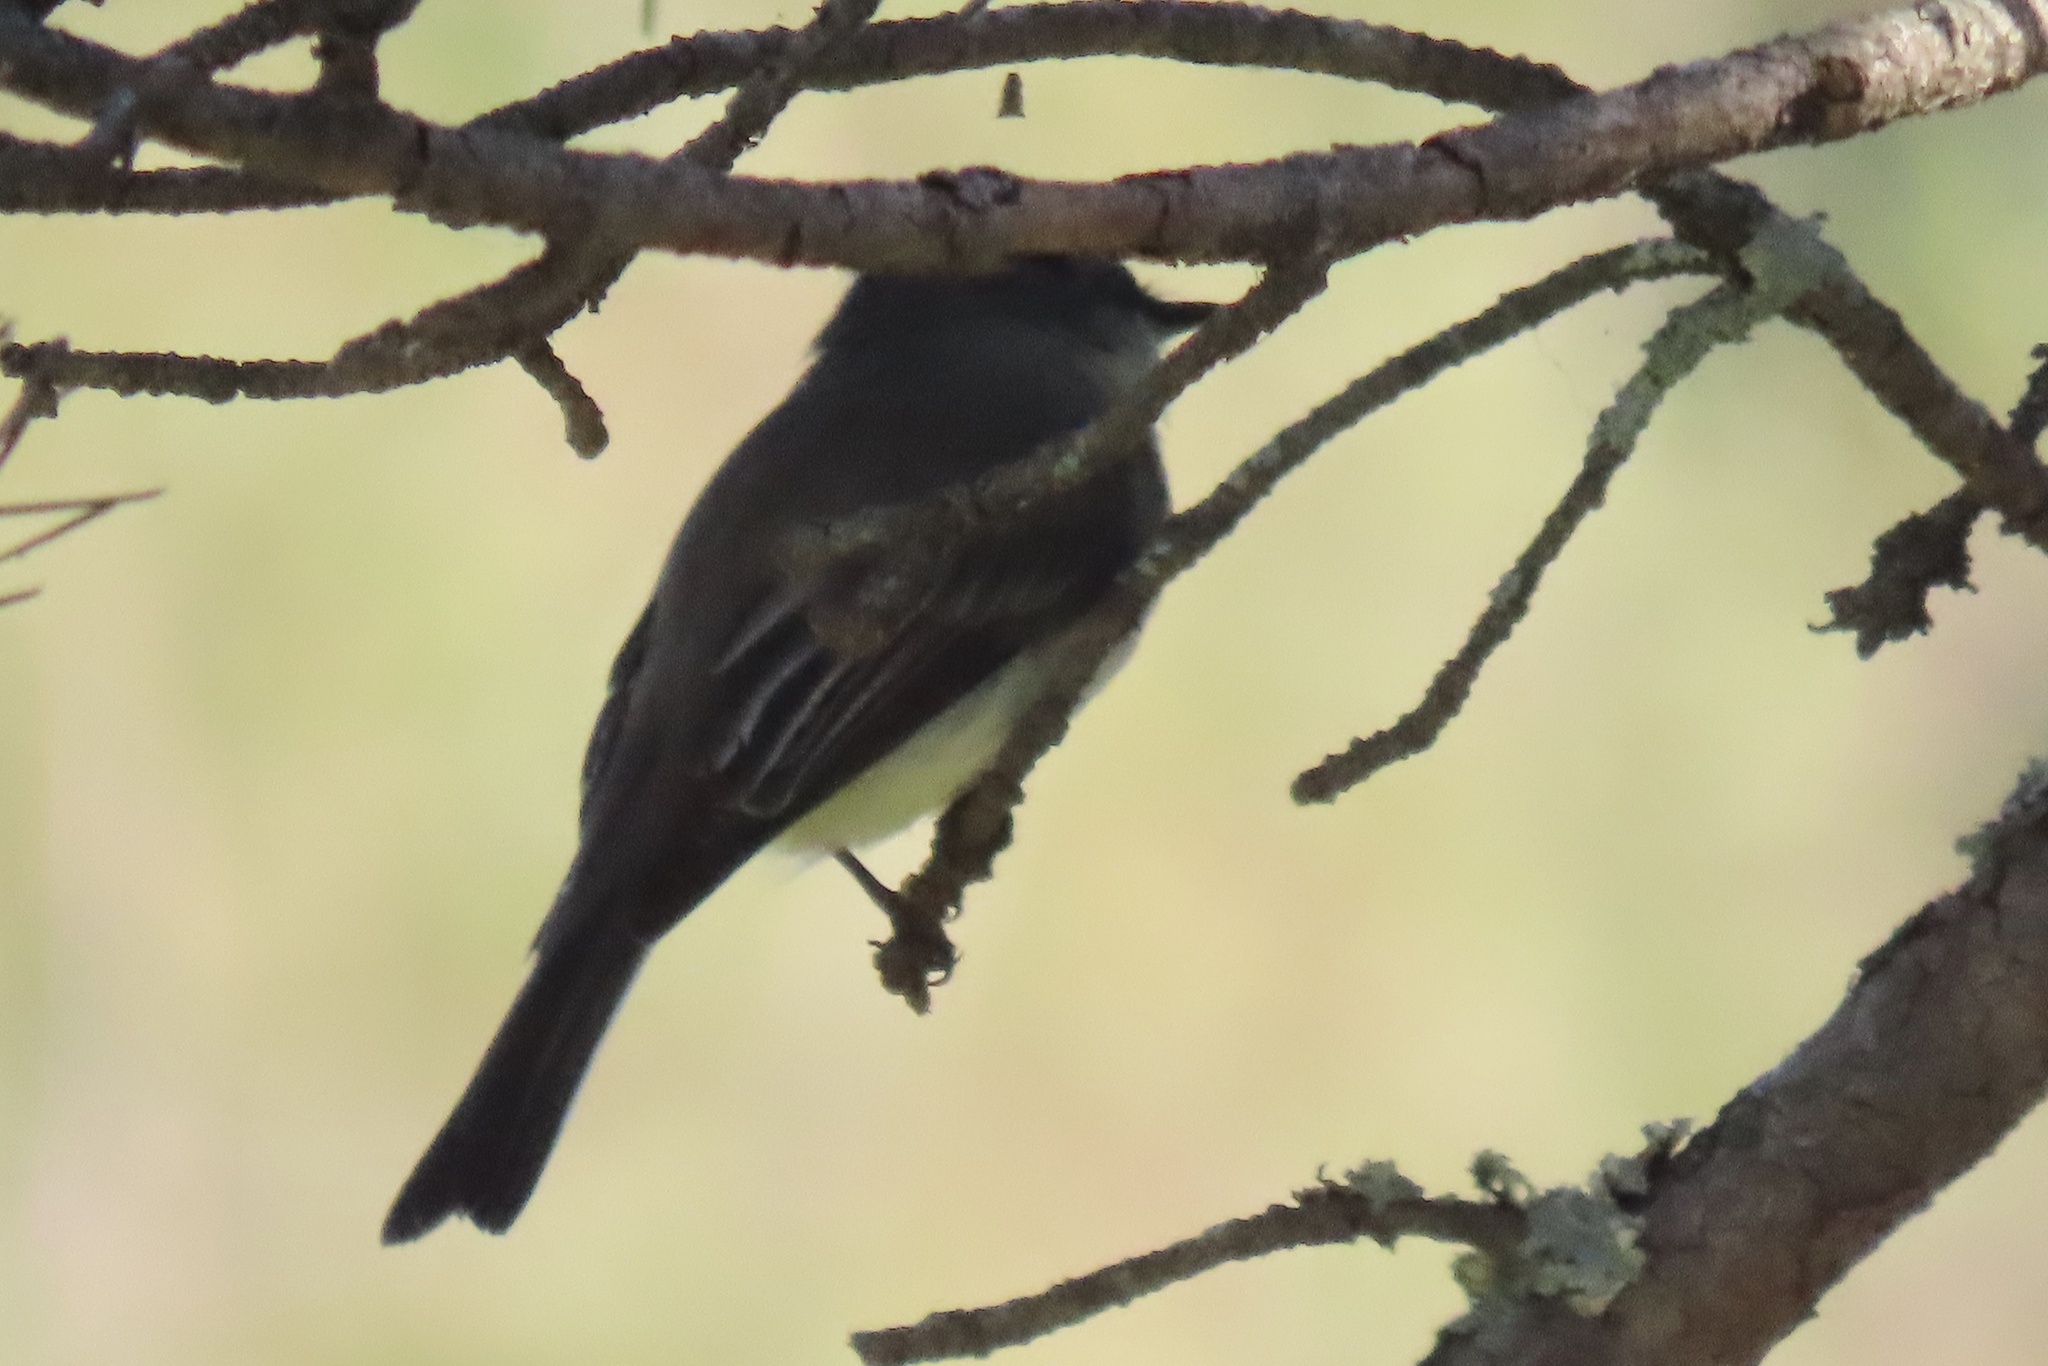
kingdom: Animalia
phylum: Chordata
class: Aves
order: Passeriformes
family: Tyrannidae
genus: Sayornis
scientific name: Sayornis phoebe
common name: Eastern phoebe
